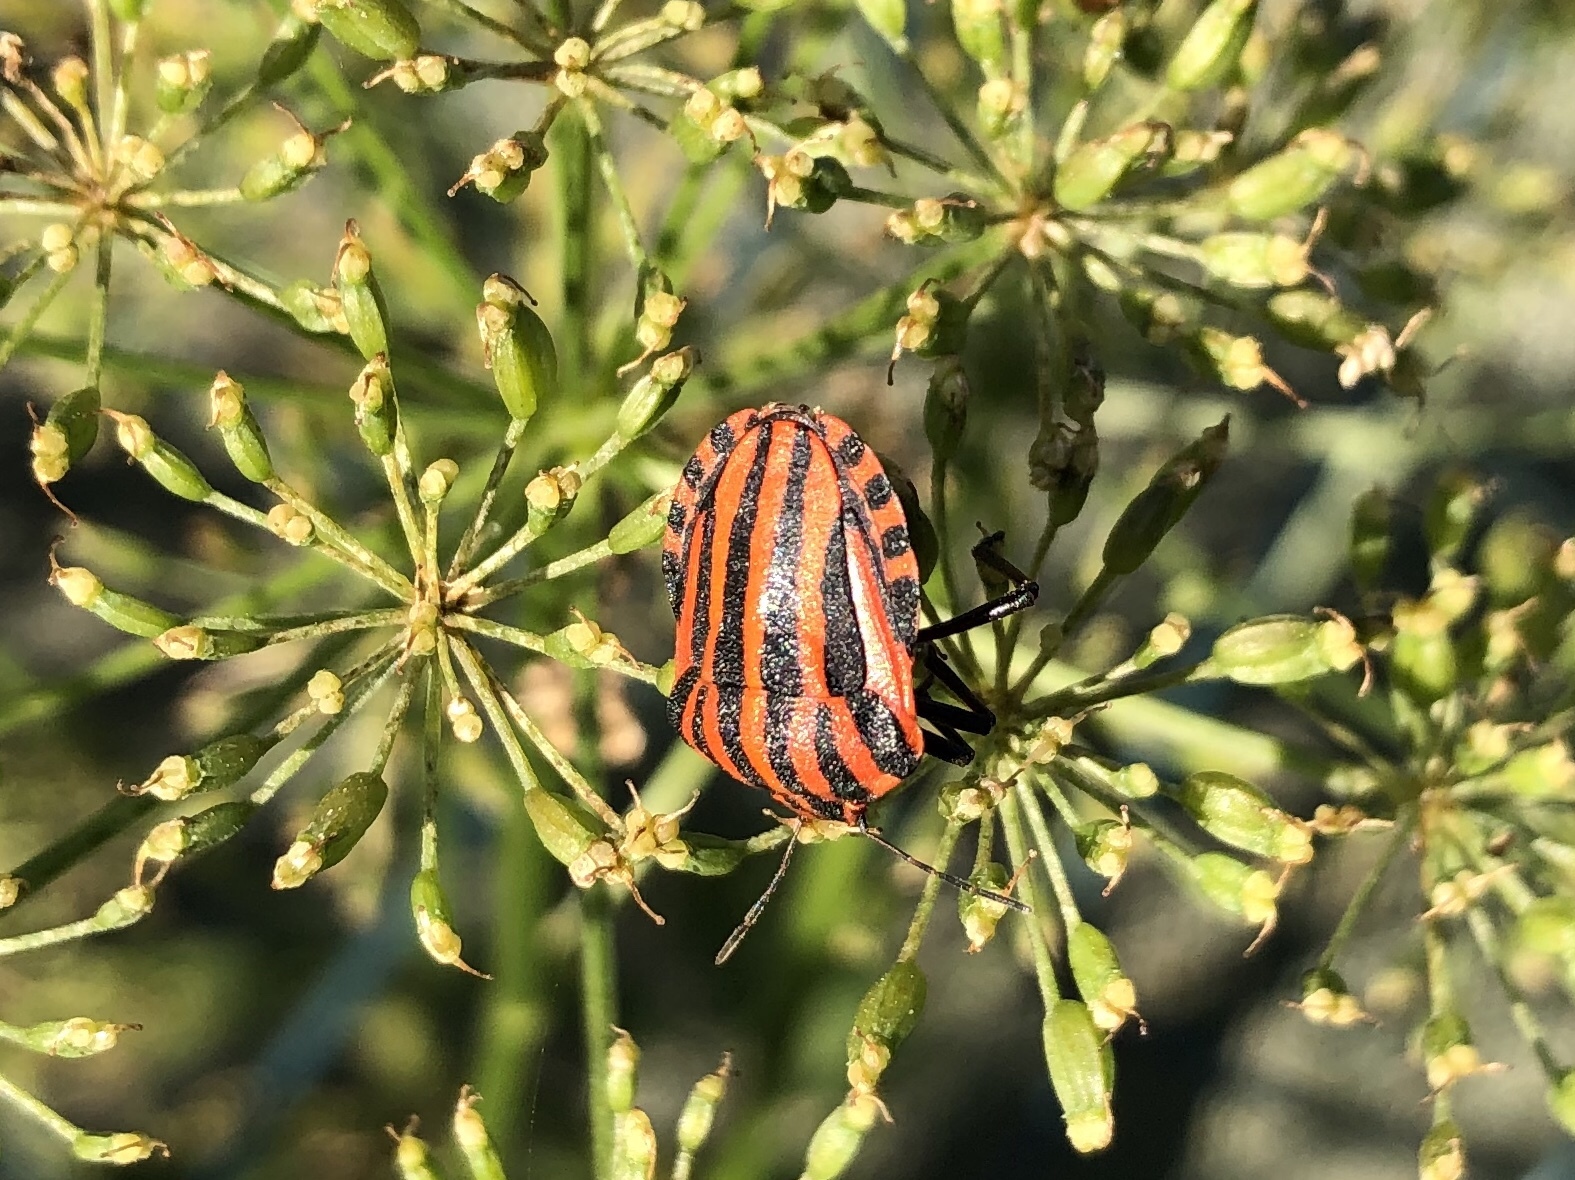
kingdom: Animalia
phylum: Arthropoda
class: Insecta
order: Hemiptera
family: Pentatomidae
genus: Graphosoma
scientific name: Graphosoma italicum
